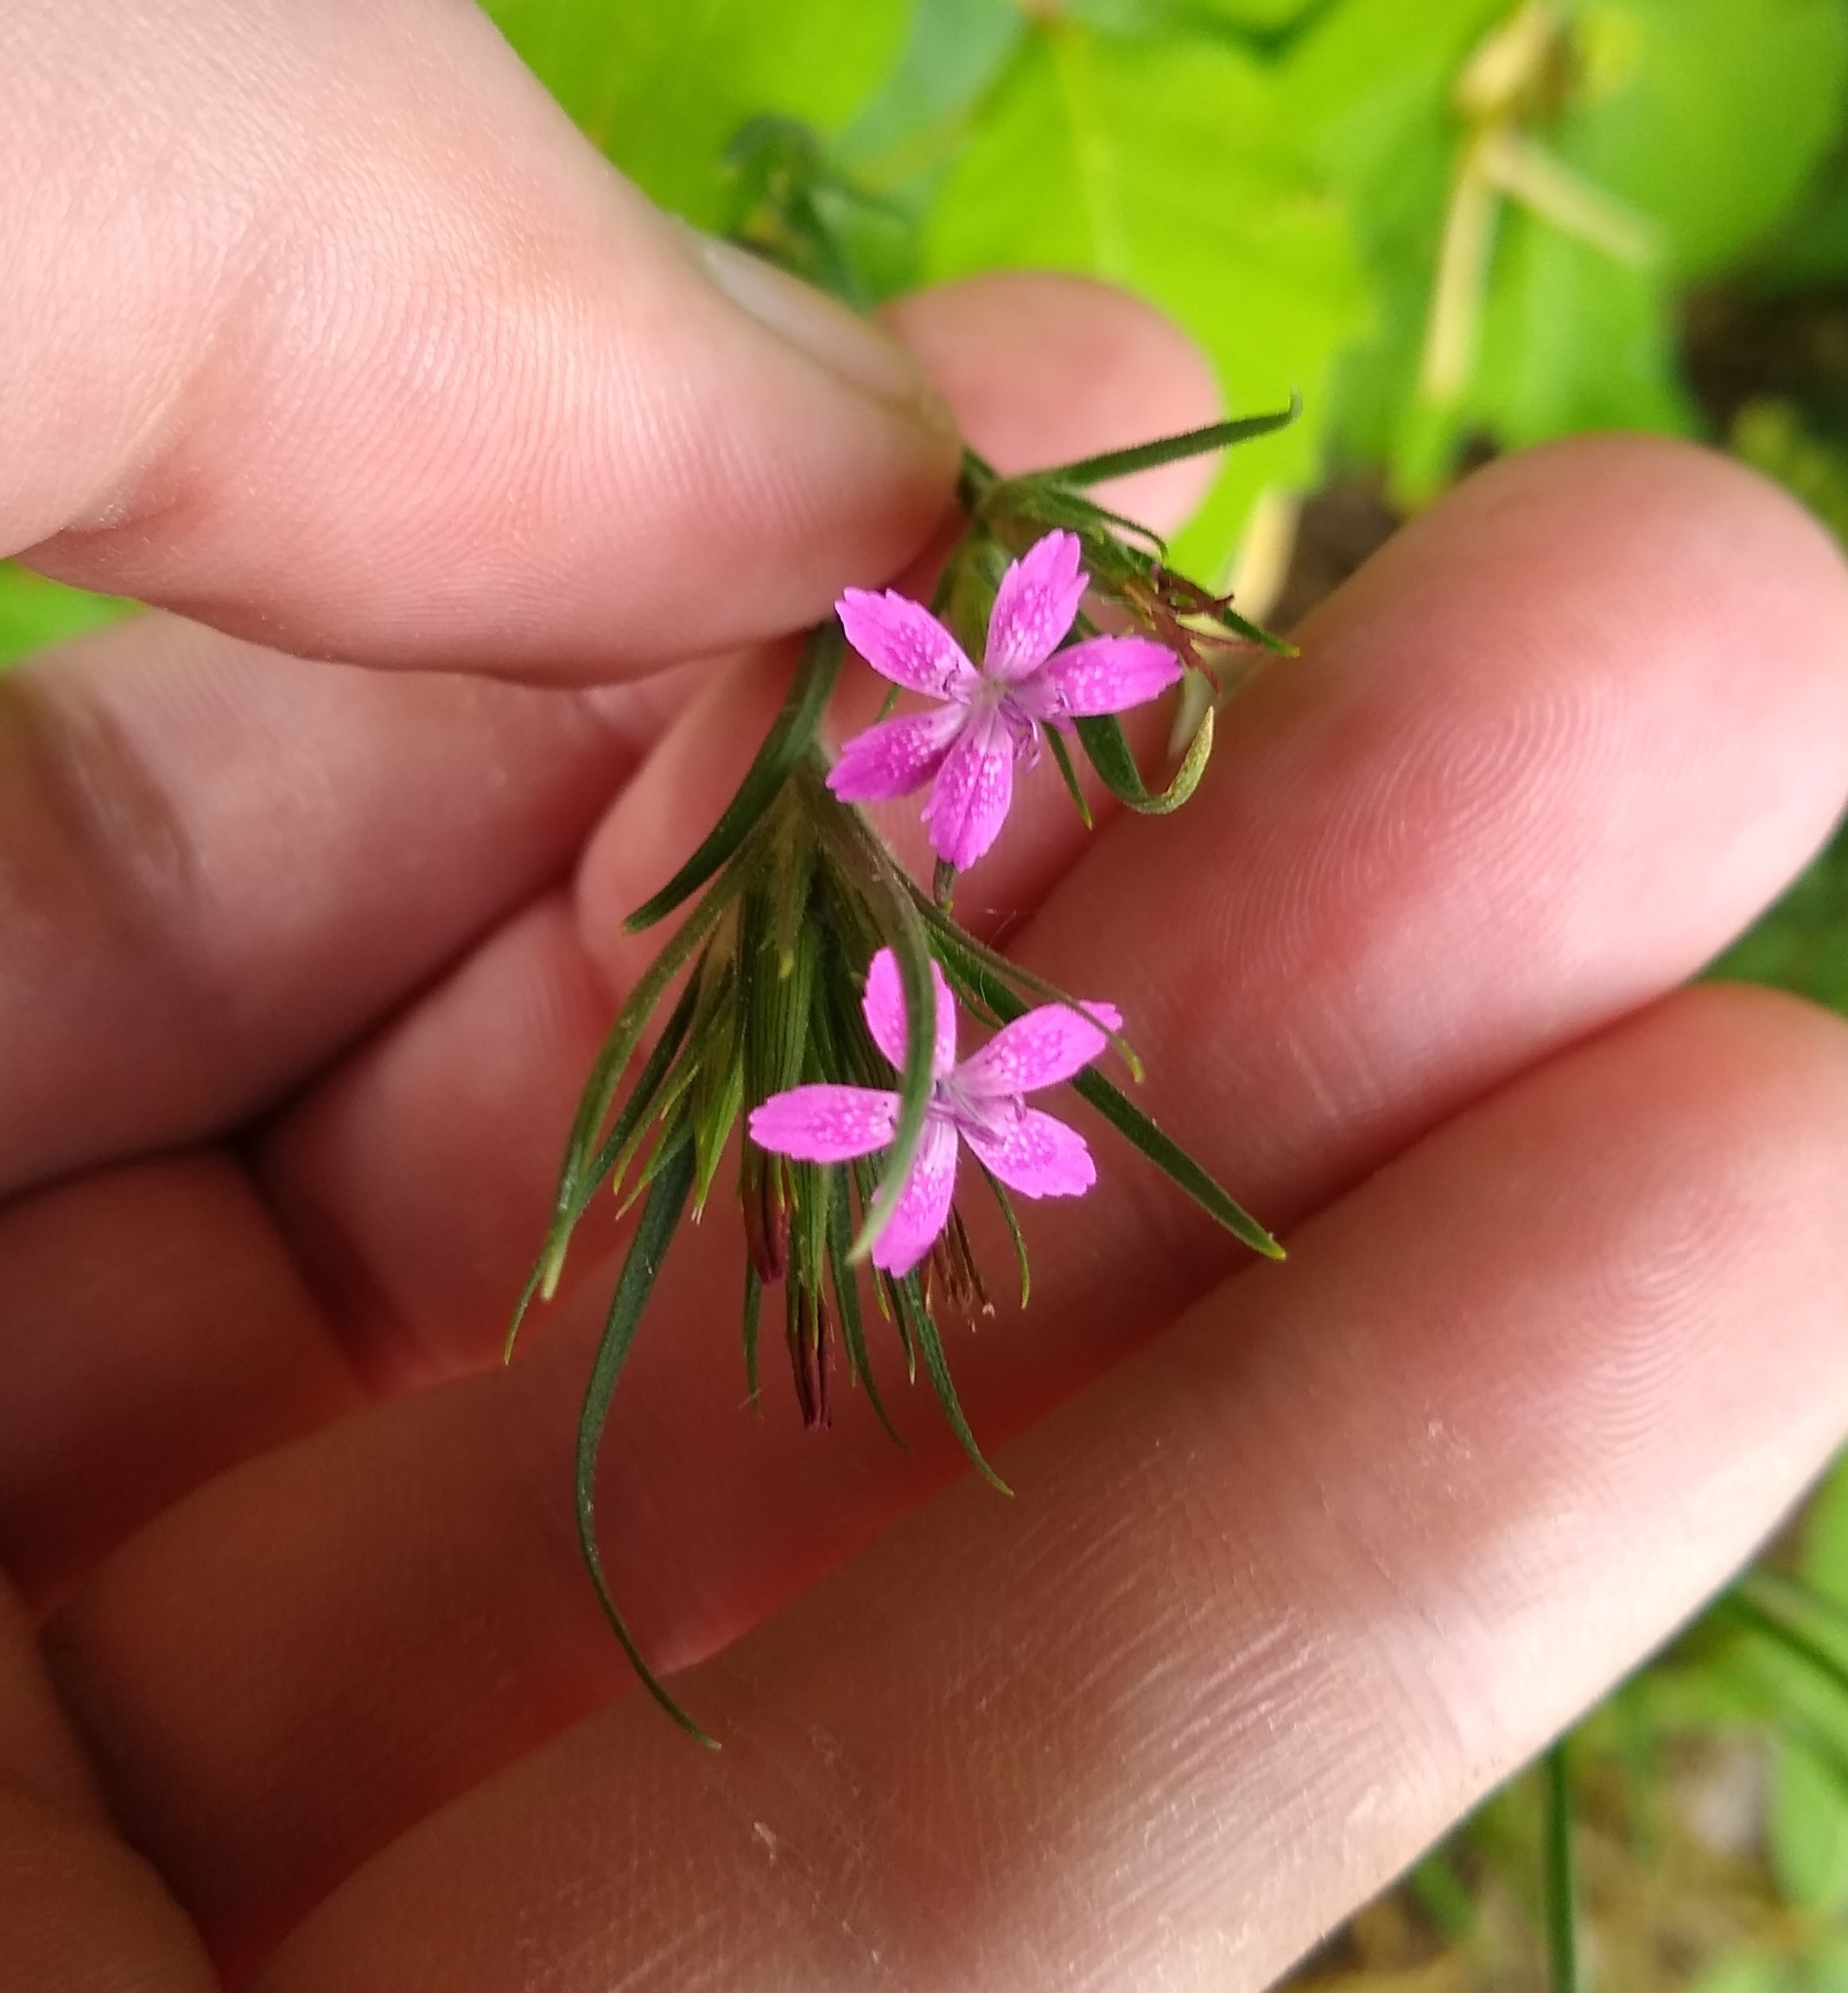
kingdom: Plantae
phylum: Tracheophyta
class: Magnoliopsida
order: Caryophyllales
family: Caryophyllaceae
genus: Dianthus
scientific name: Dianthus armeria
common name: Deptford pink
